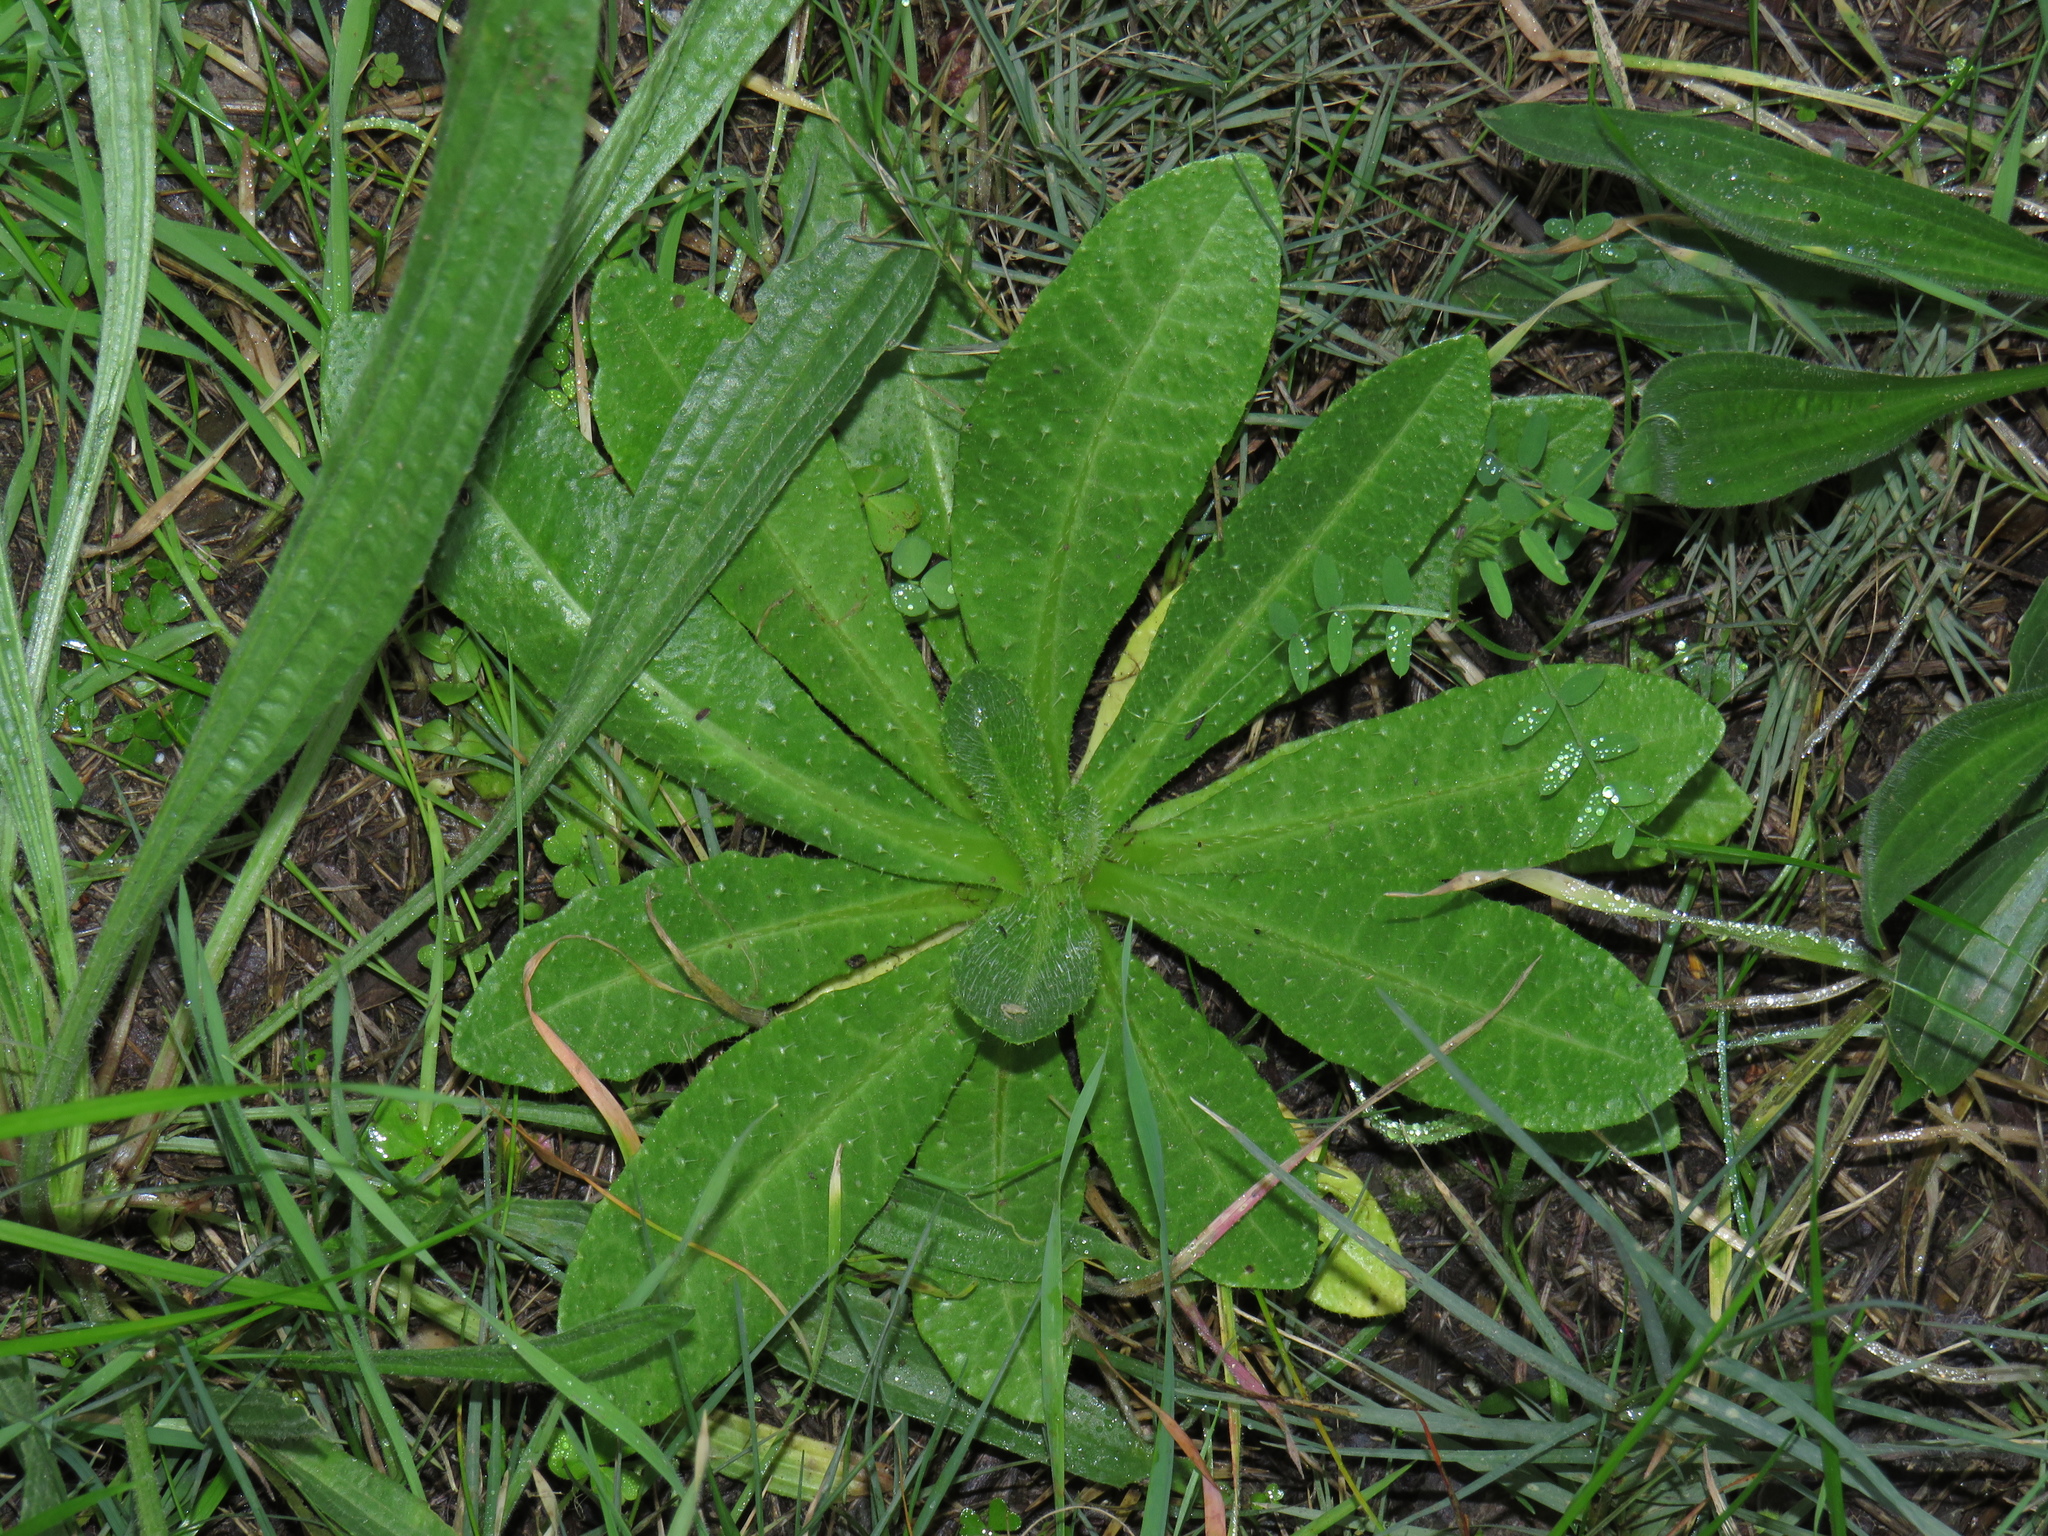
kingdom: Plantae
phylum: Tracheophyta
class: Magnoliopsida
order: Asterales
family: Asteraceae
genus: Helminthotheca
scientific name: Helminthotheca echioides
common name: Ox-tongue
